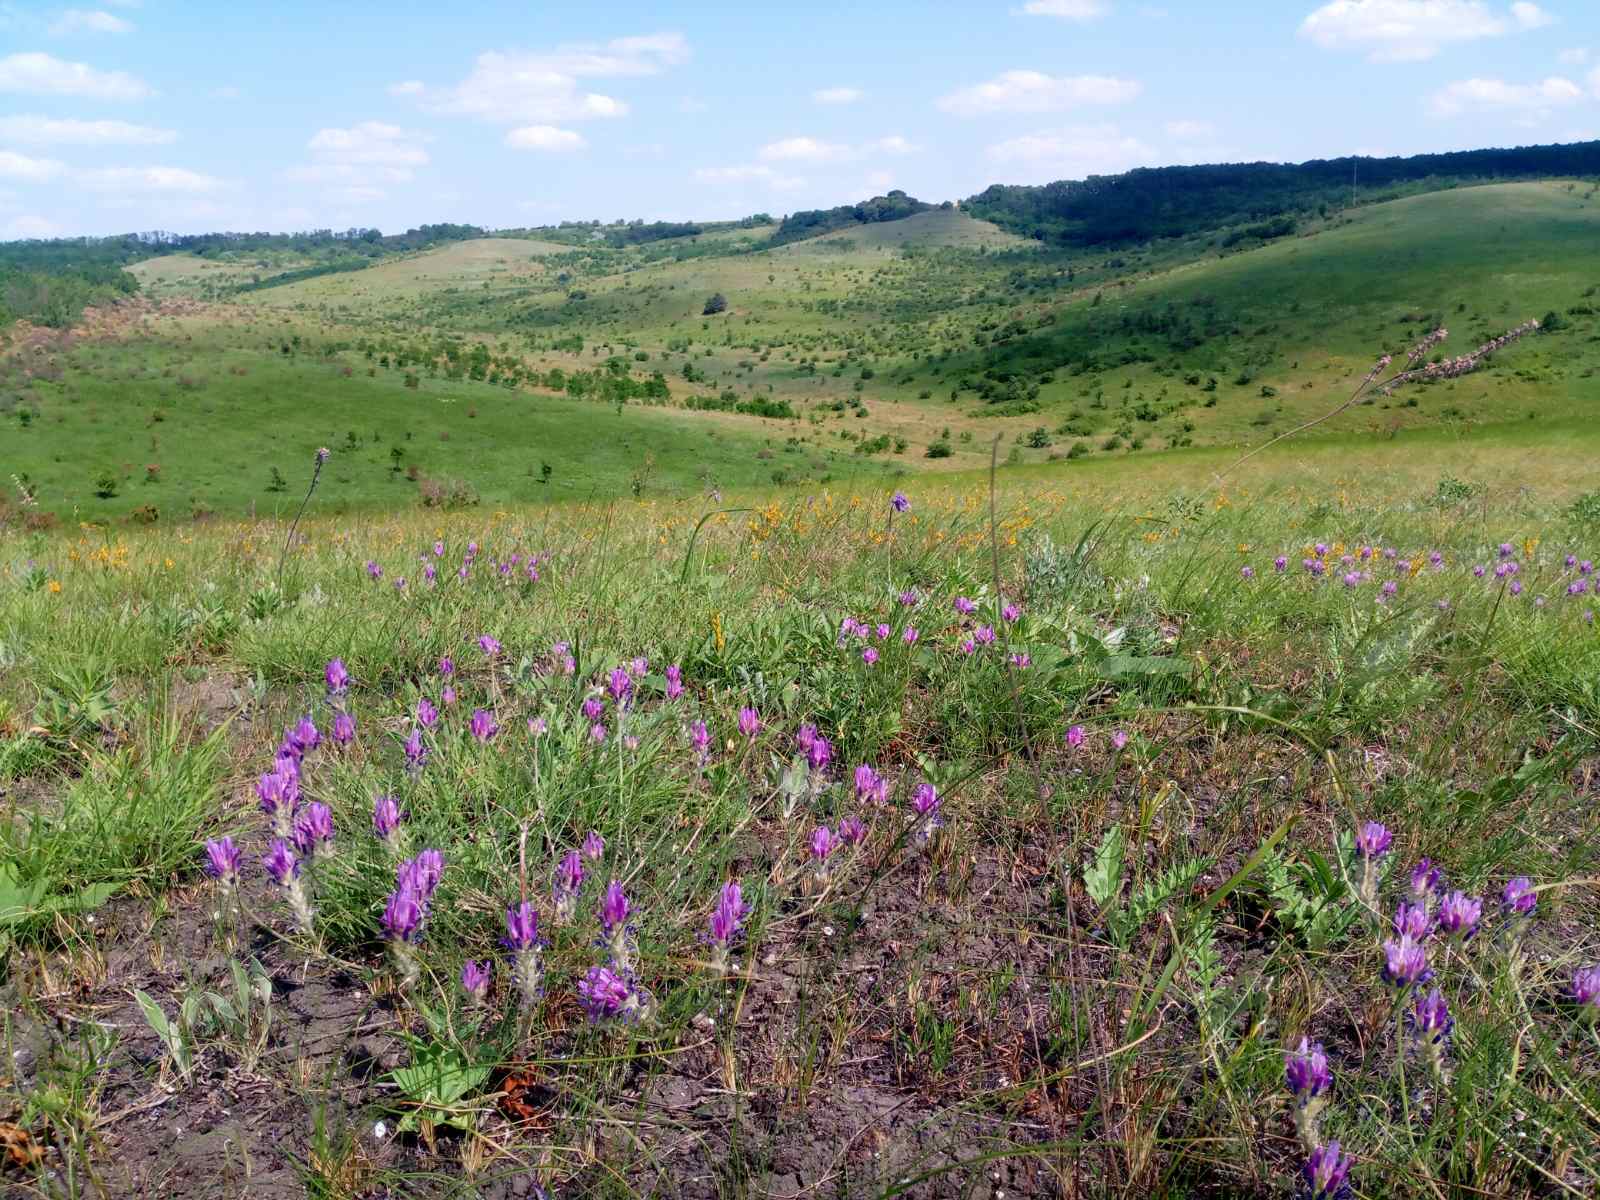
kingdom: Plantae
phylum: Tracheophyta
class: Magnoliopsida
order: Fabales
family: Fabaceae
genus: Astragalus
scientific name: Astragalus onobrychis
